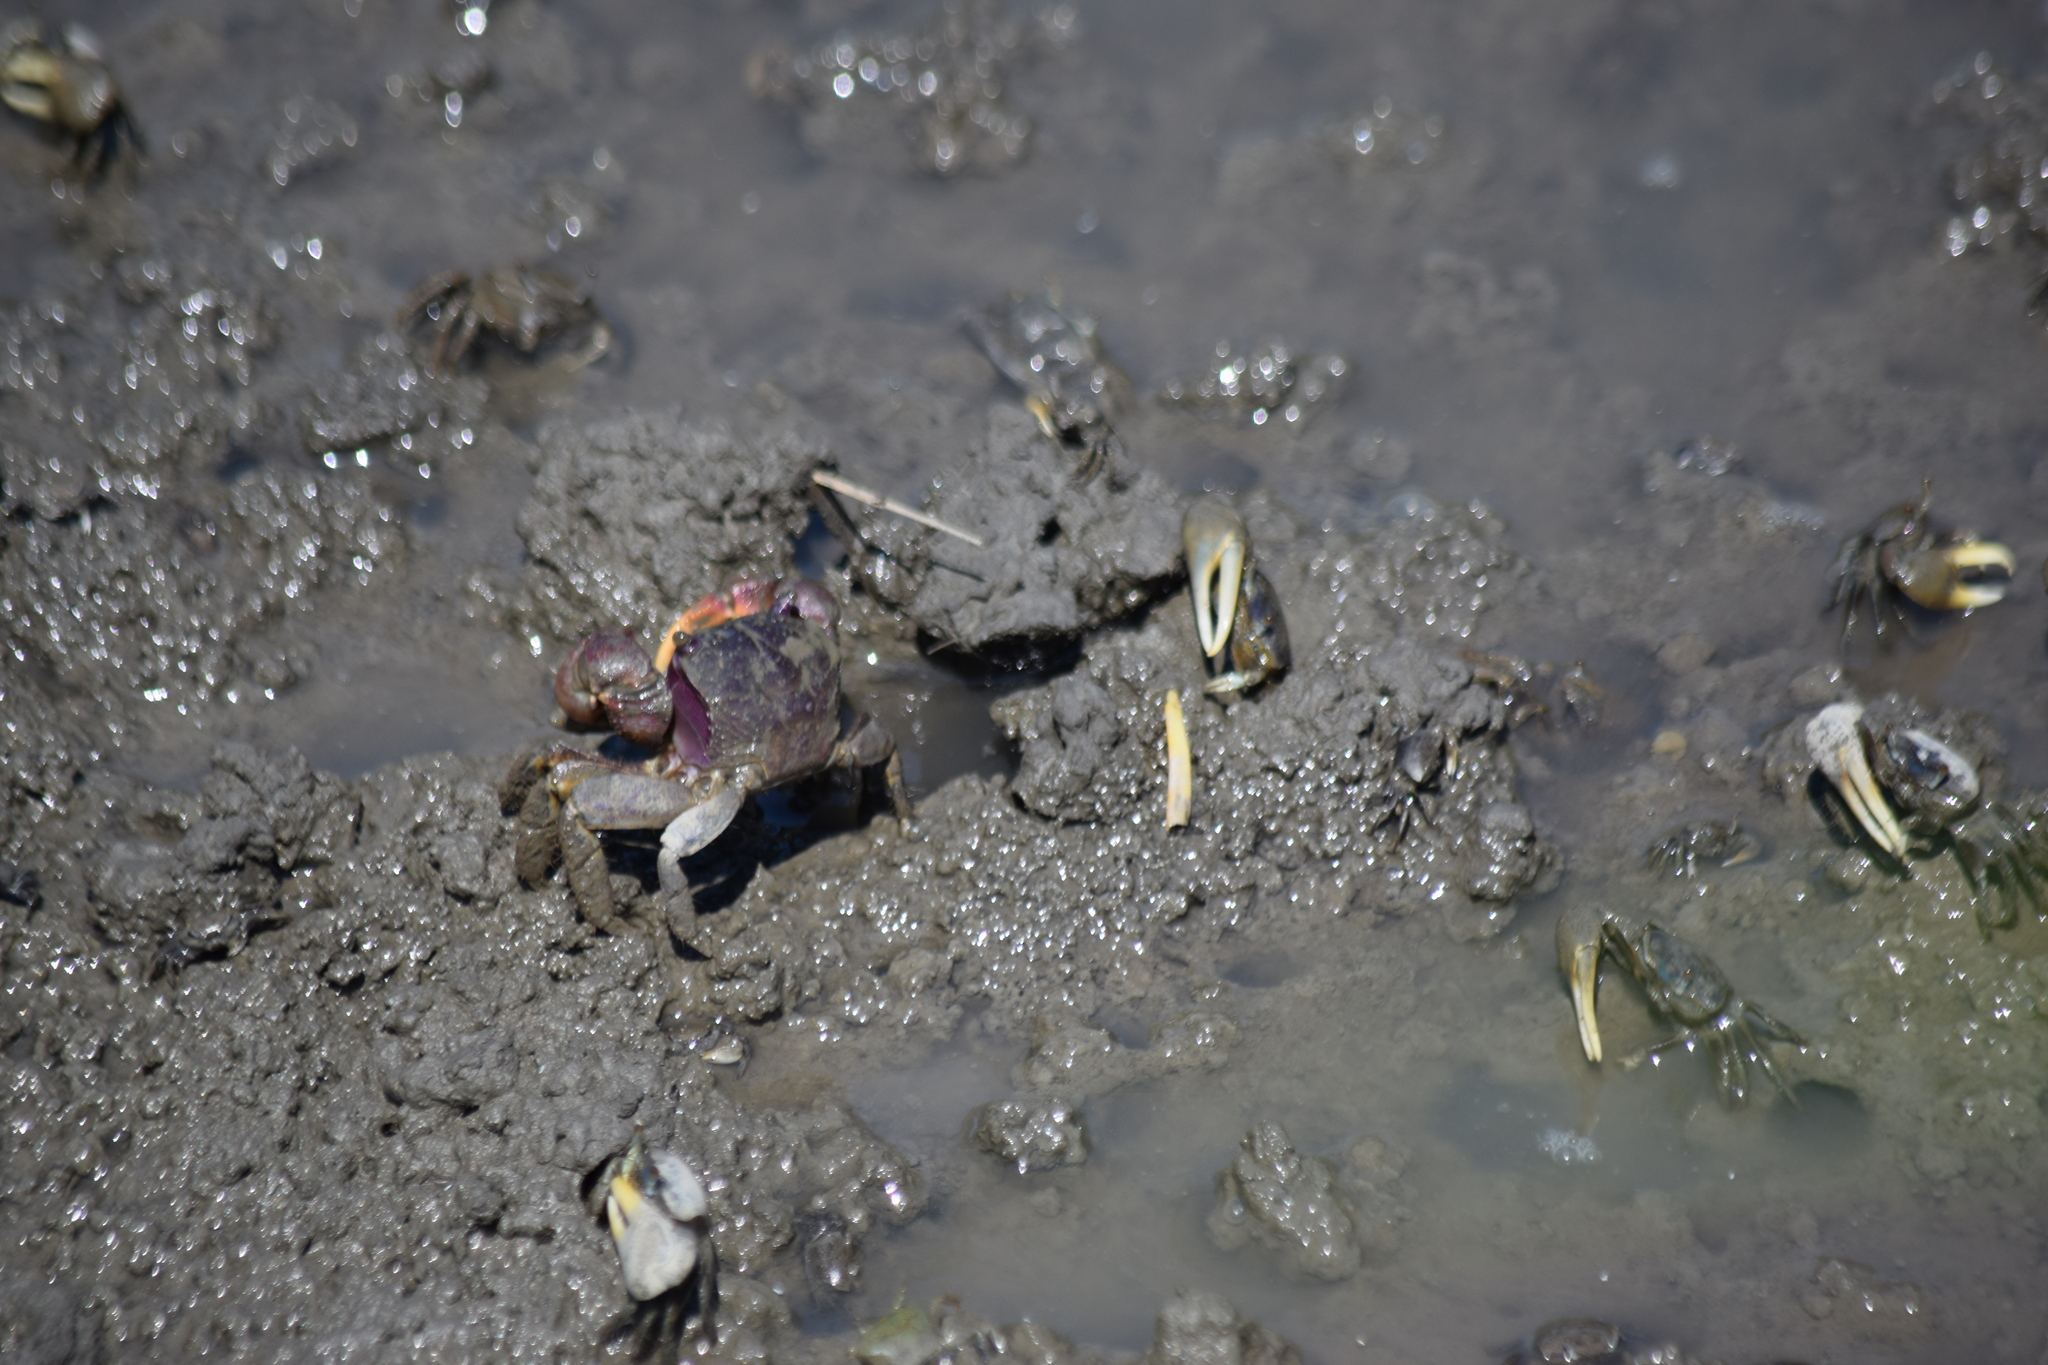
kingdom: Animalia
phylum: Arthropoda
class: Malacostraca
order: Decapoda
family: Ocypodidae
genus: Minuca
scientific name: Minuca pugnax
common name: Mud fiddler crab
